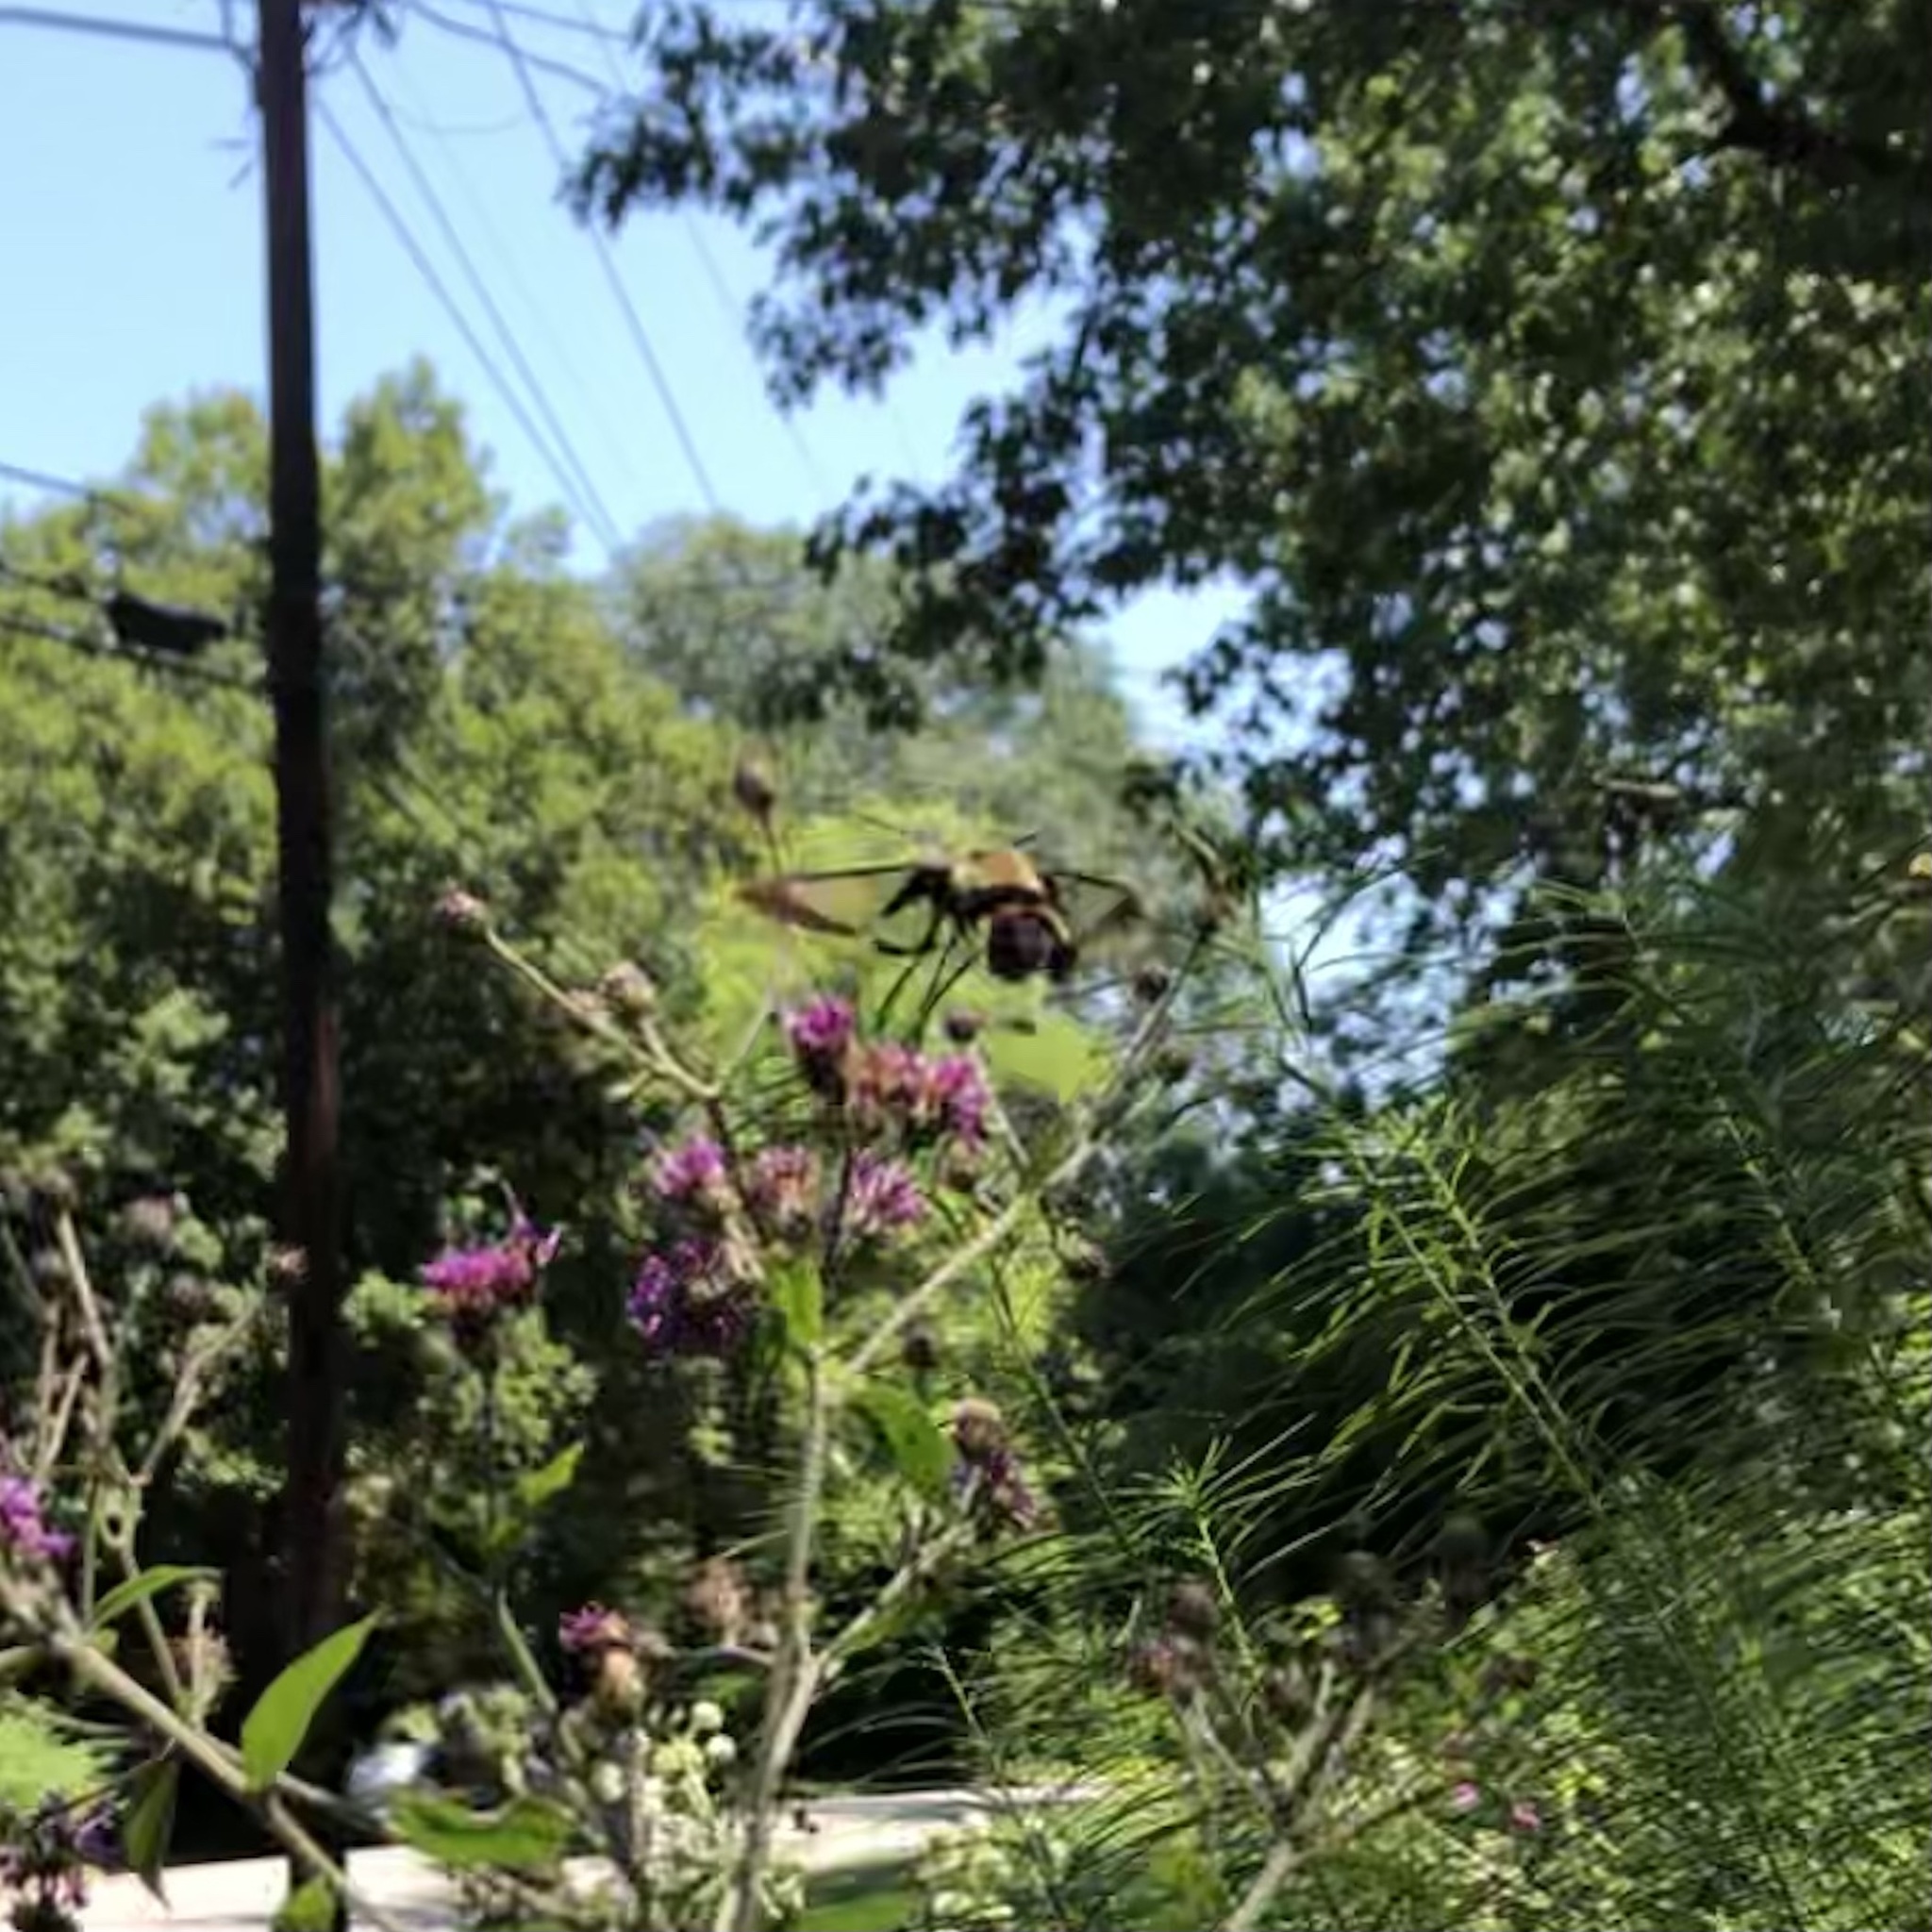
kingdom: Animalia
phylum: Arthropoda
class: Insecta
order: Lepidoptera
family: Sphingidae
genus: Hemaris
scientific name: Hemaris diffinis
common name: Bumblebee moth
